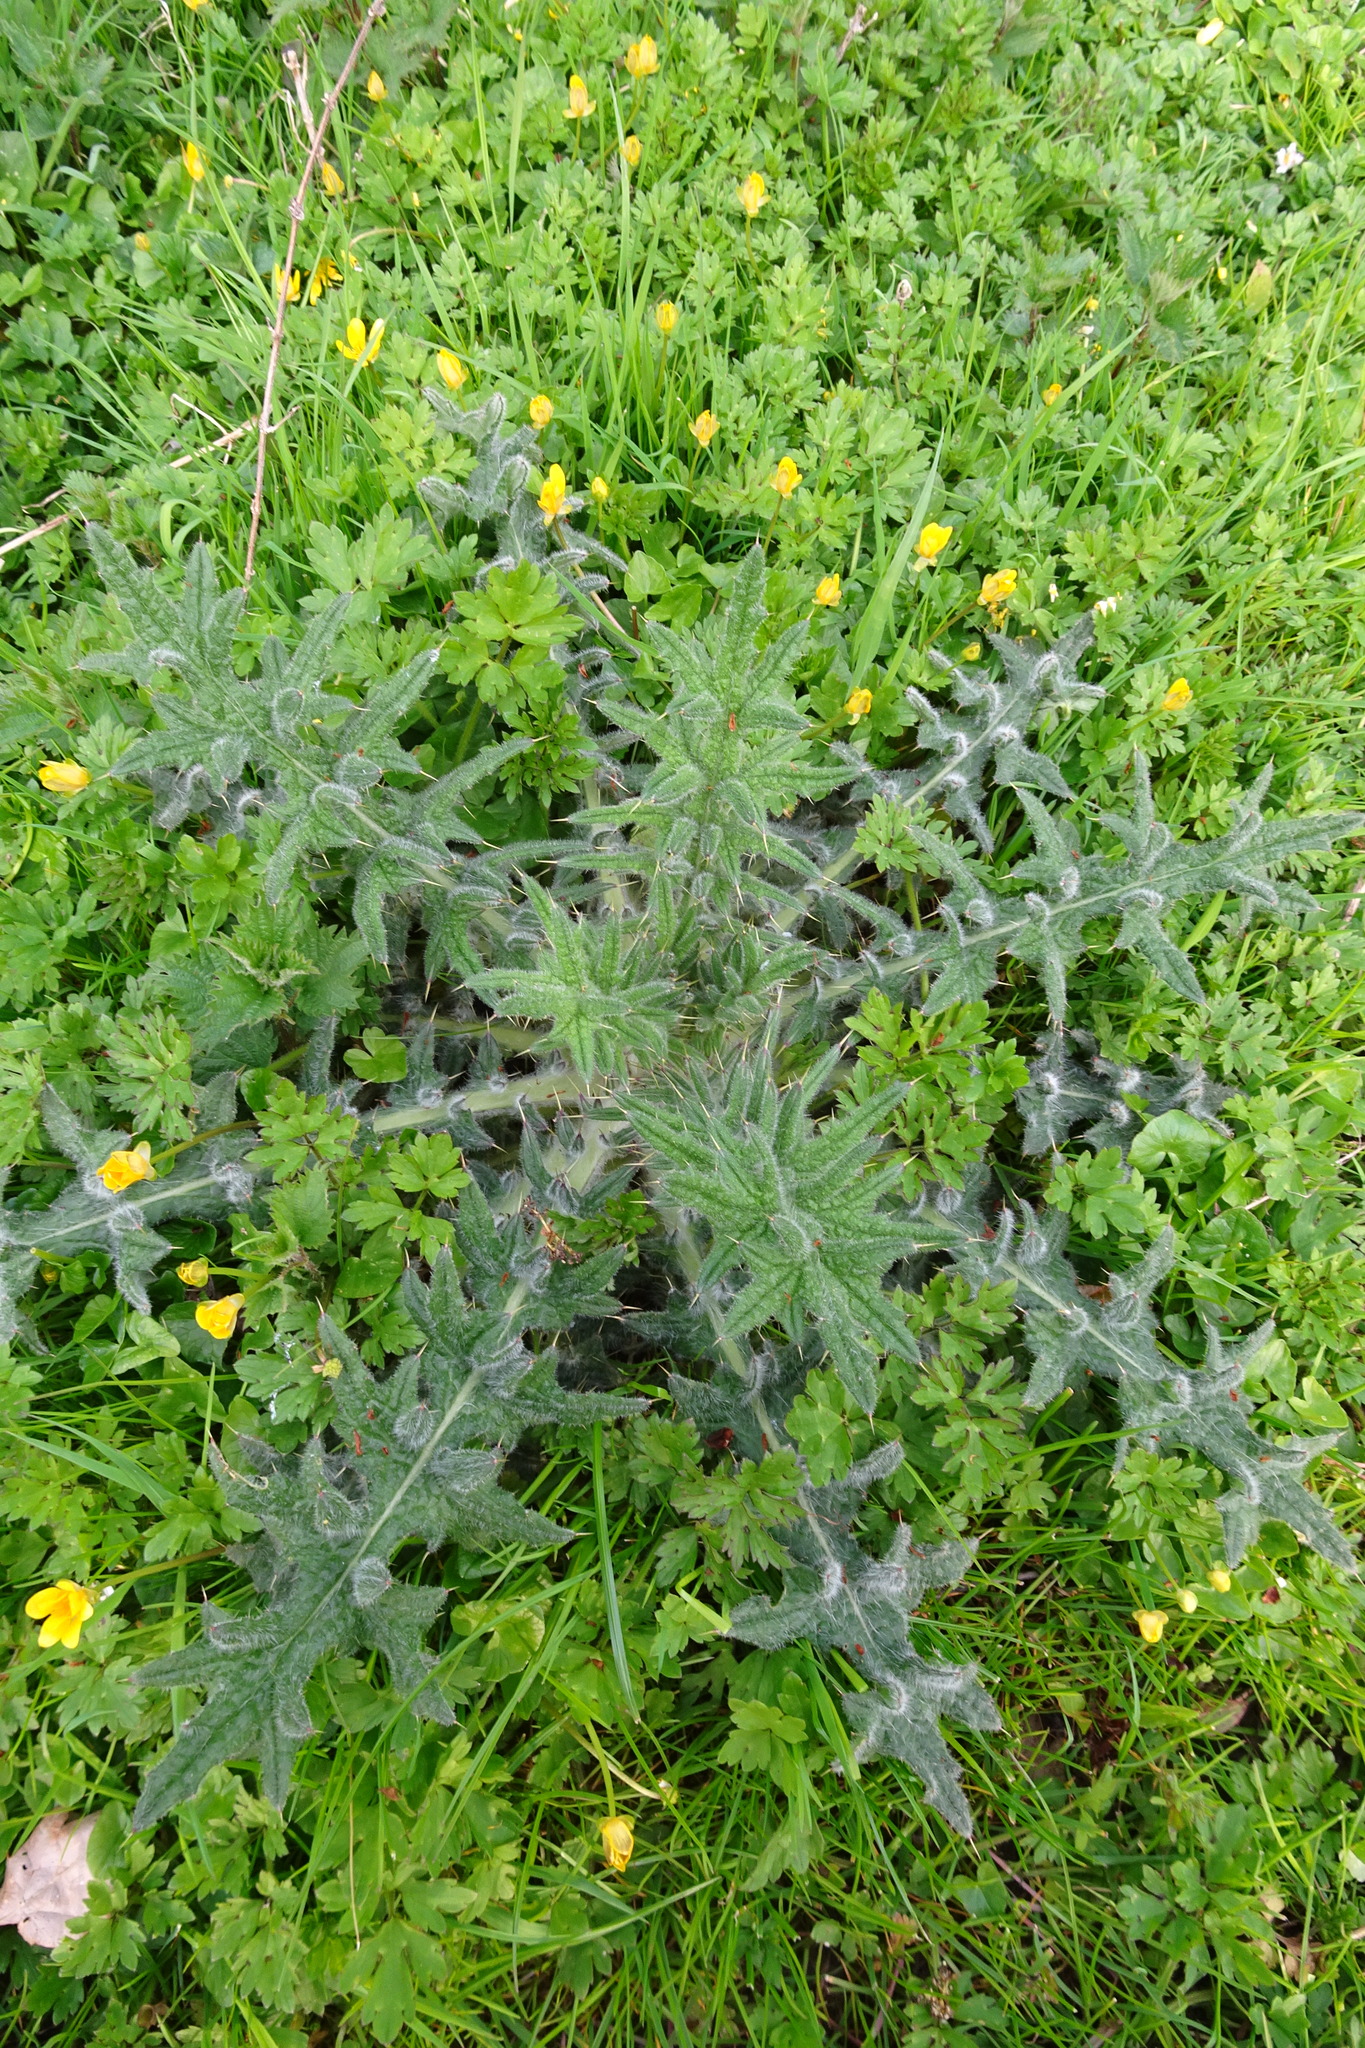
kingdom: Plantae
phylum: Tracheophyta
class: Magnoliopsida
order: Asterales
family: Asteraceae
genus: Cirsium
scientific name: Cirsium vulgare
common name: Bull thistle
